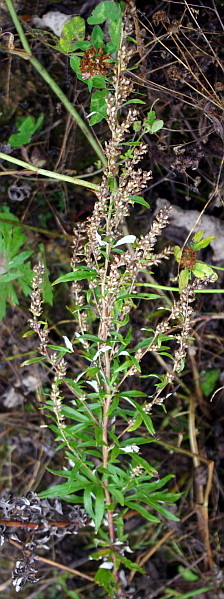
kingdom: Plantae
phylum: Tracheophyta
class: Magnoliopsida
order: Asterales
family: Asteraceae
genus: Artemisia
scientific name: Artemisia vulgaris
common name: Mugwort
